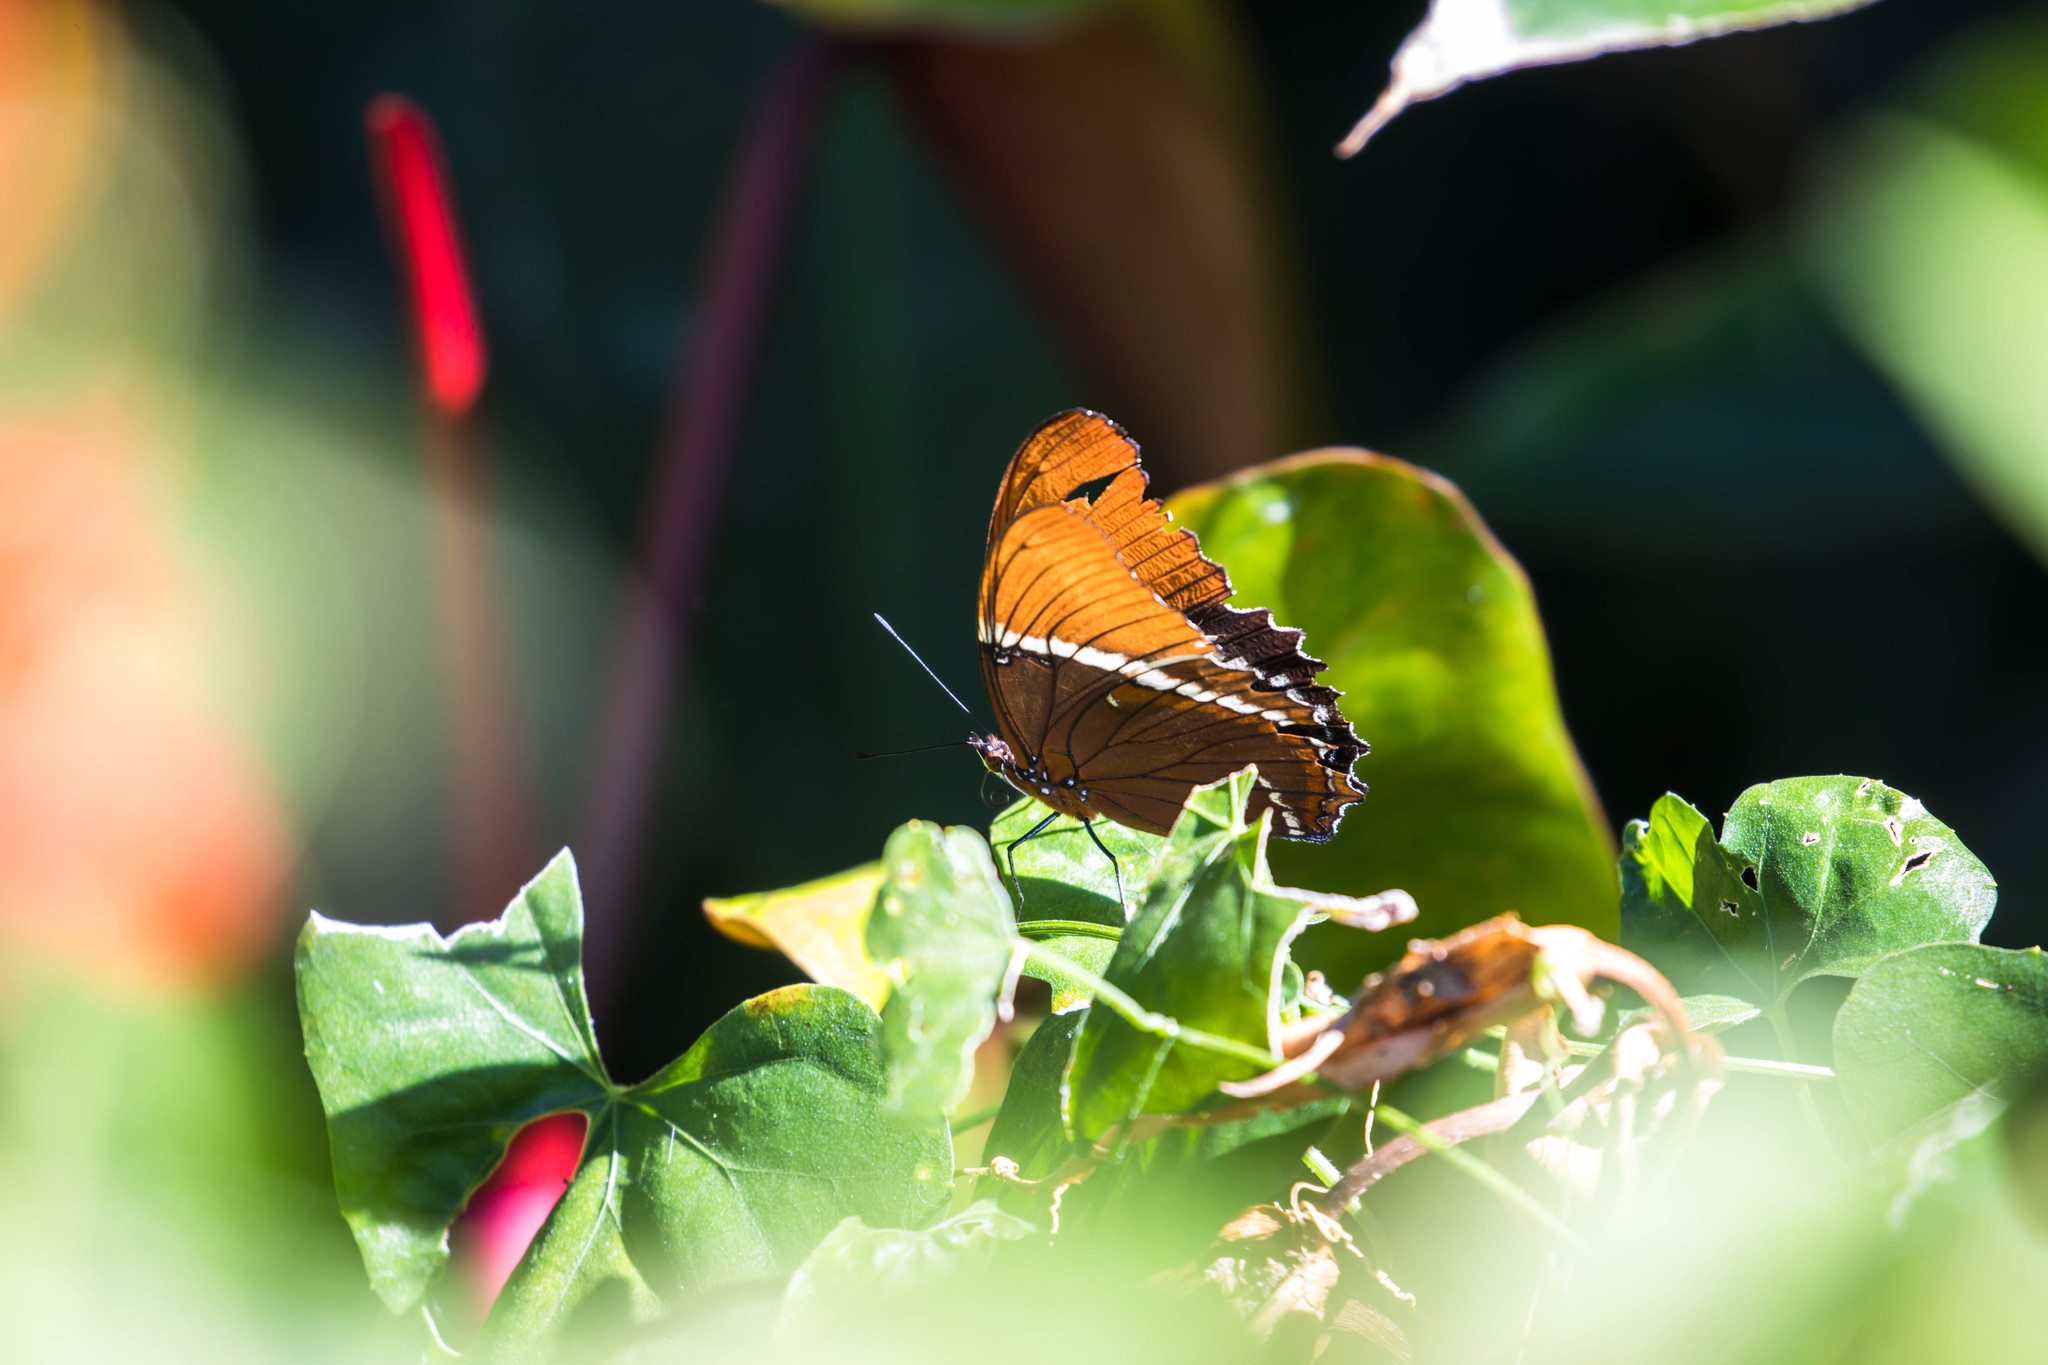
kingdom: Animalia
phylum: Arthropoda
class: Insecta
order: Lepidoptera
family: Nymphalidae
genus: Siproeta
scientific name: Siproeta epaphus
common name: Rusty-tipped page
